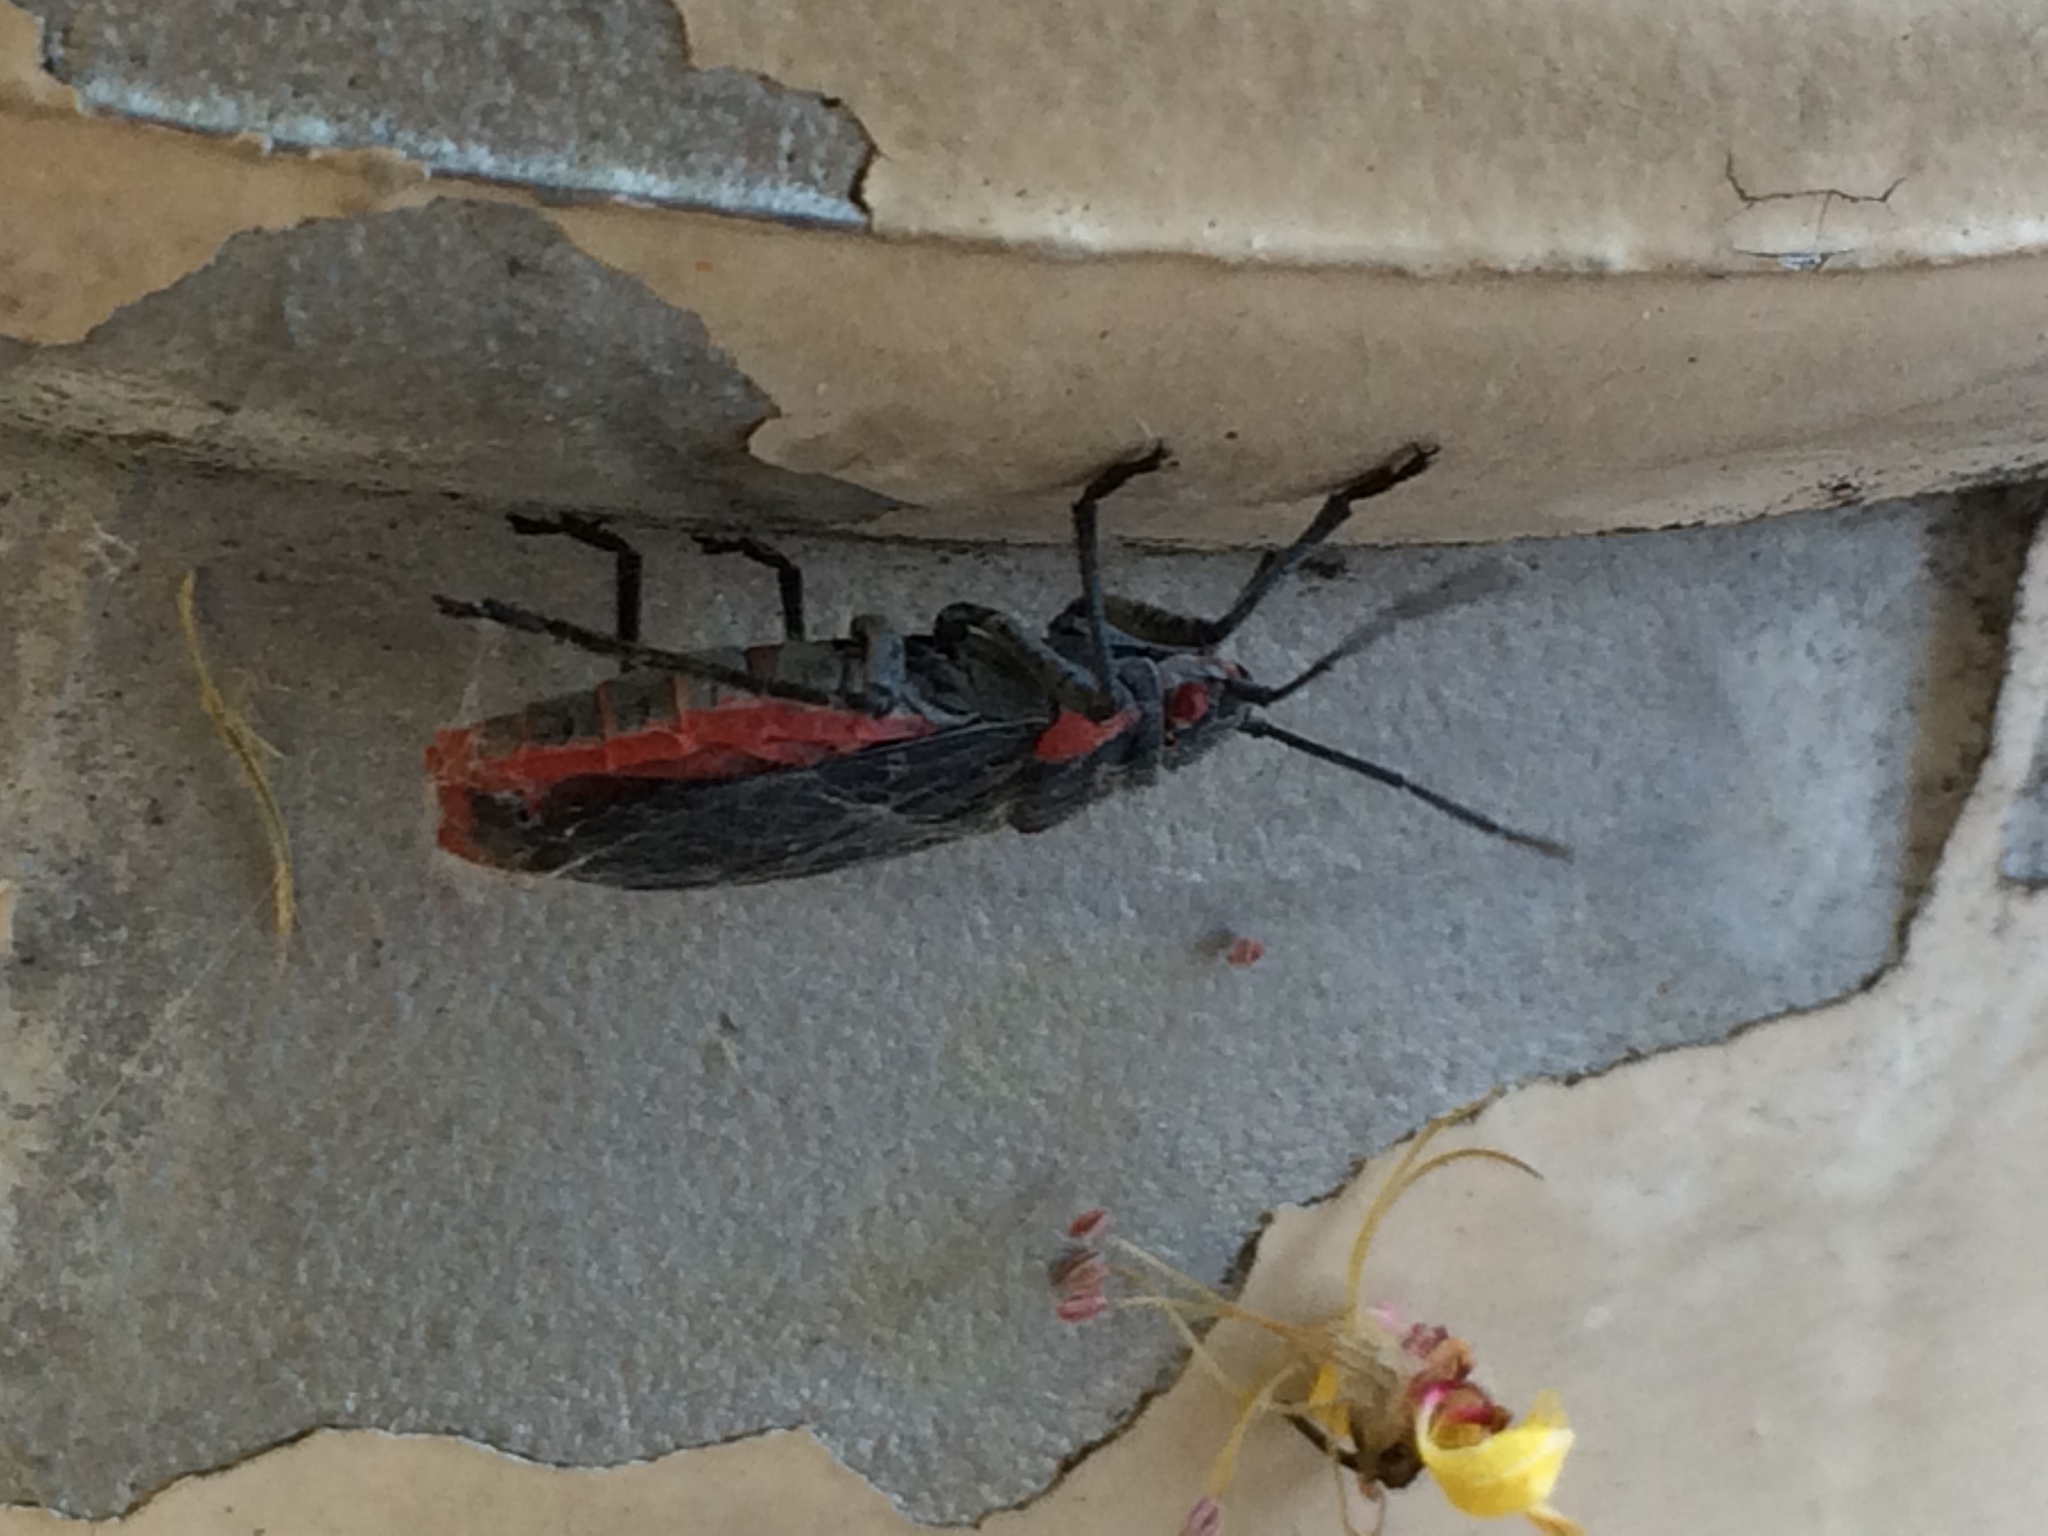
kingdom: Animalia
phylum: Arthropoda
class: Insecta
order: Hemiptera
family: Rhopalidae
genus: Jadera
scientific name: Jadera haematoloma
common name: Red-shouldered bug
